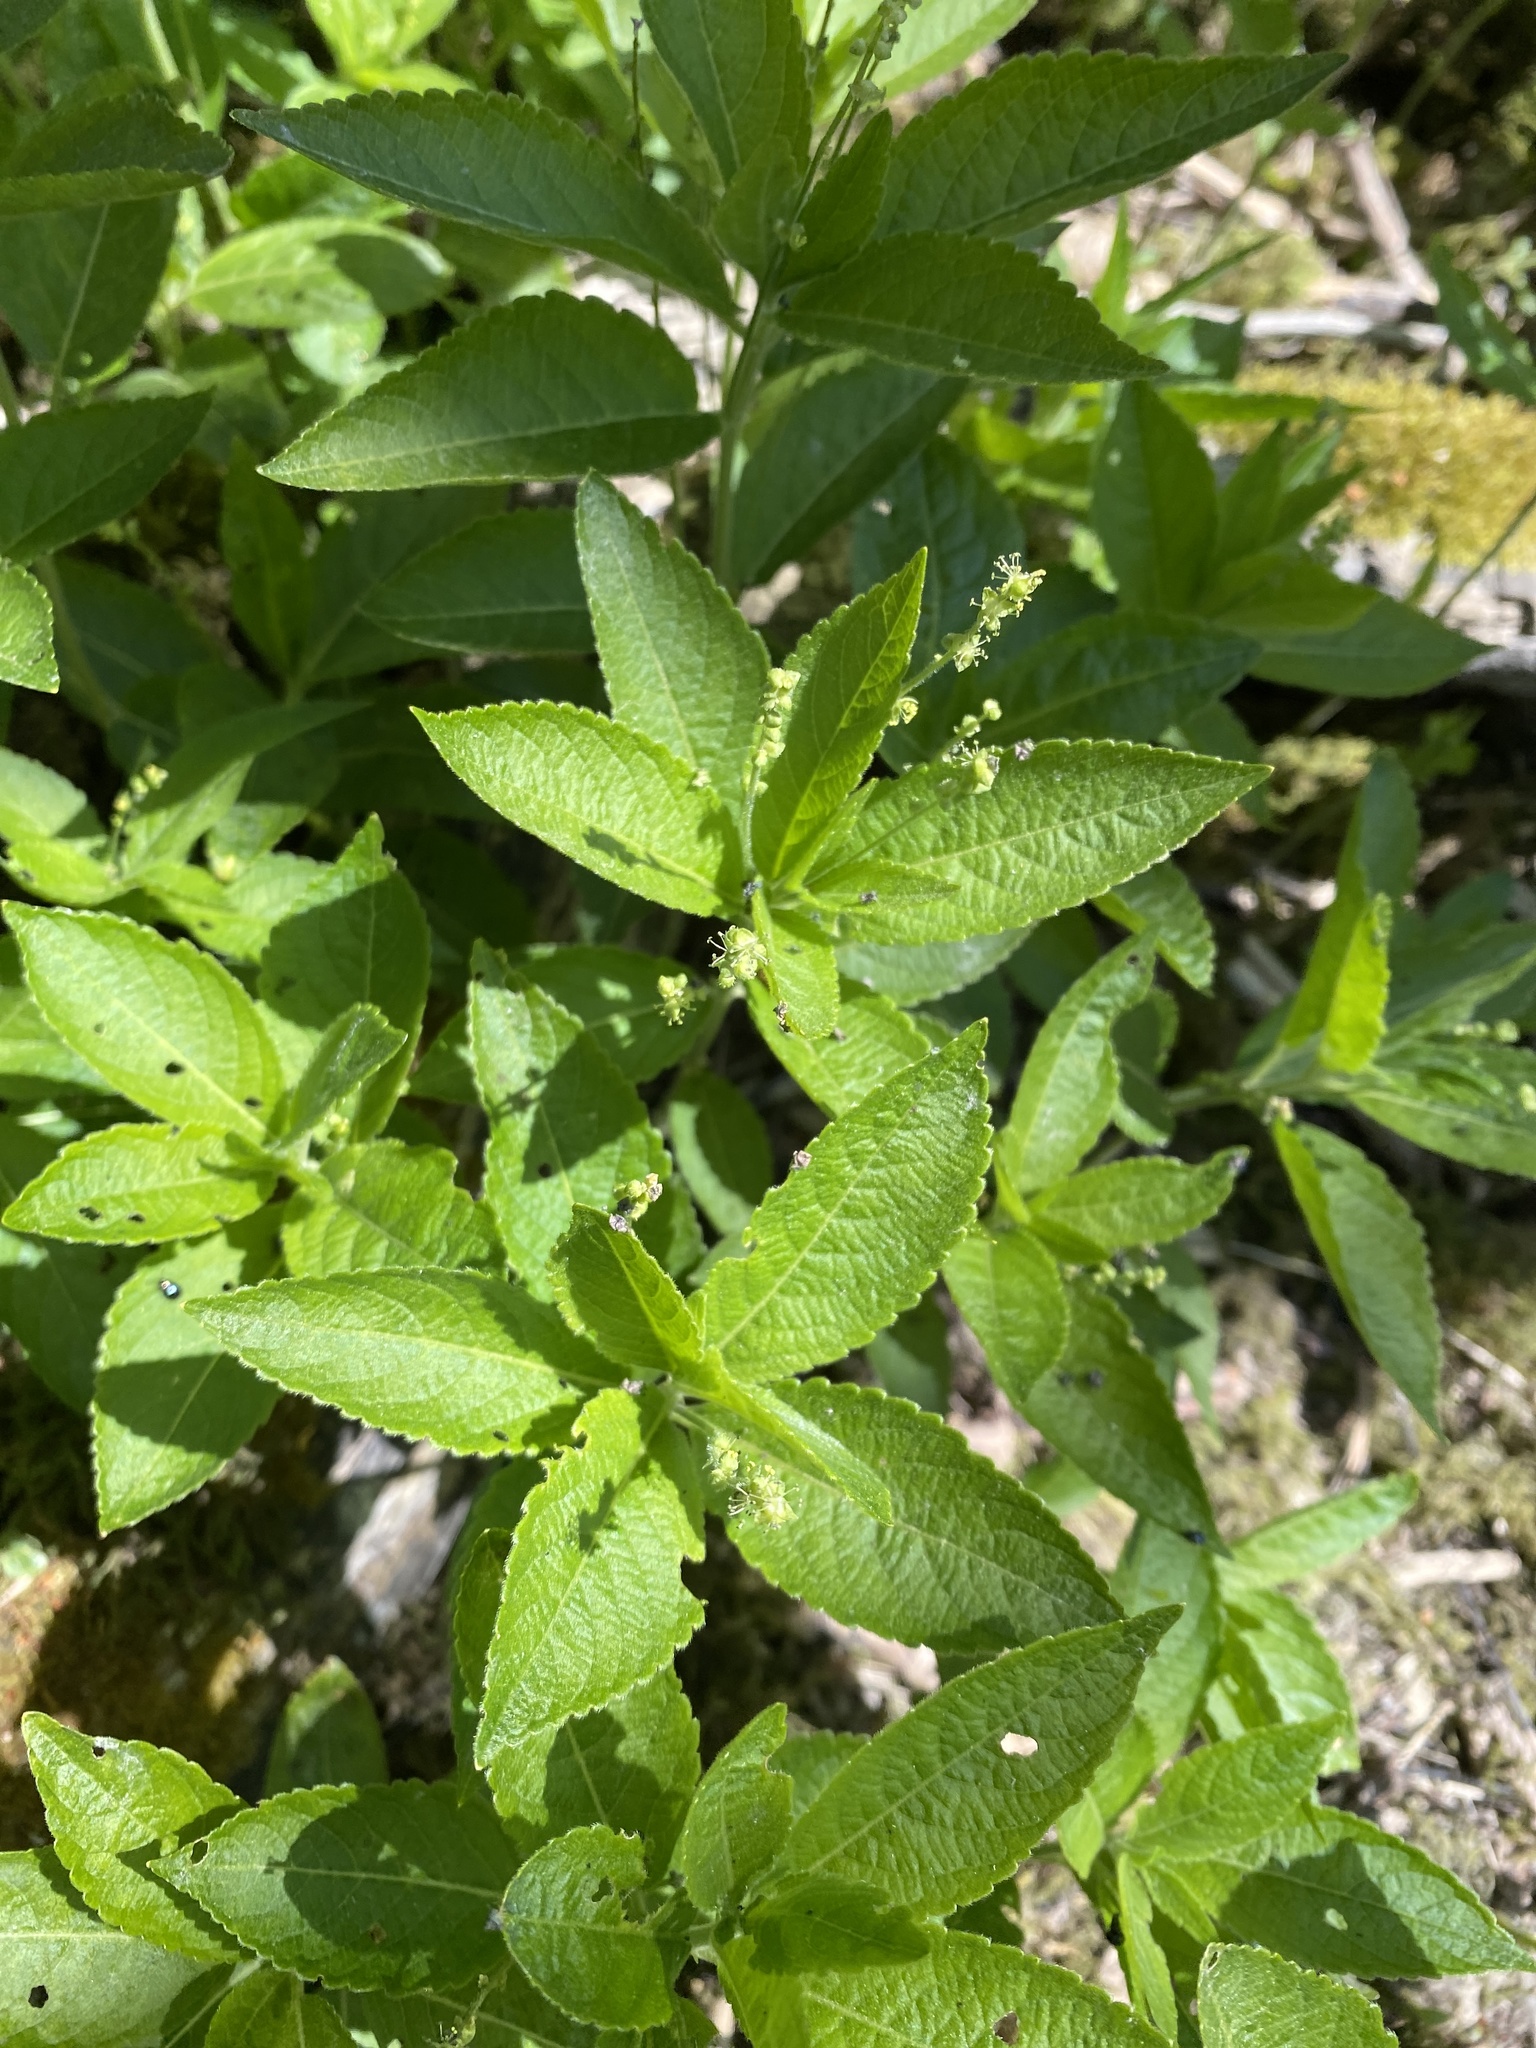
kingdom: Plantae
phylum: Tracheophyta
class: Magnoliopsida
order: Malpighiales
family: Euphorbiaceae
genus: Mercurialis
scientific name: Mercurialis perennis
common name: Dog mercury
